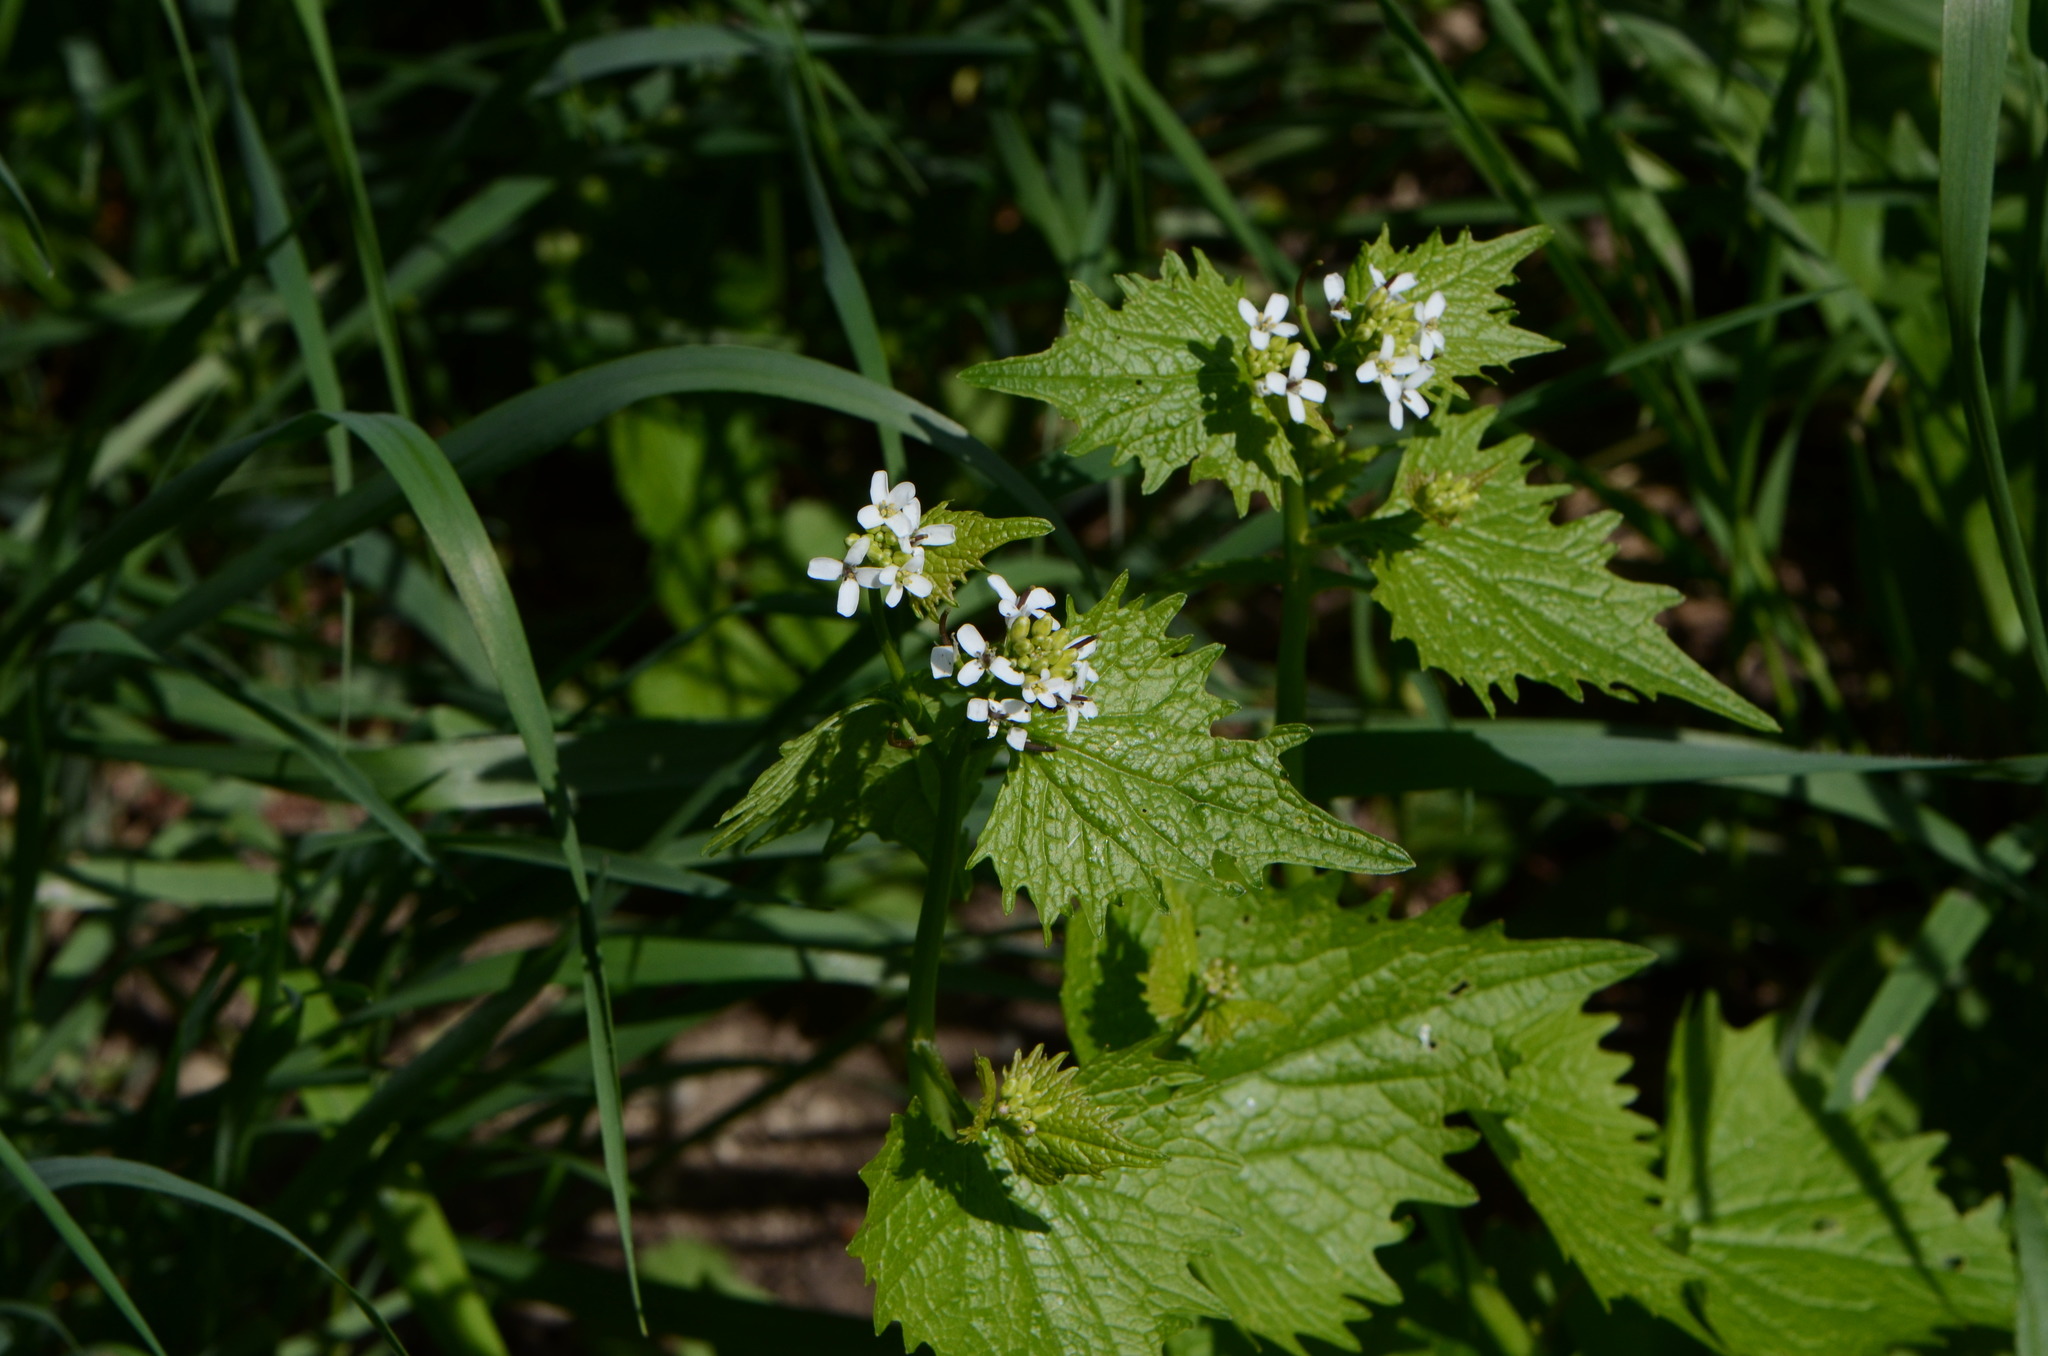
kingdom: Plantae
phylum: Tracheophyta
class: Magnoliopsida
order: Brassicales
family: Brassicaceae
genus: Alliaria
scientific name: Alliaria petiolata
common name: Garlic mustard
